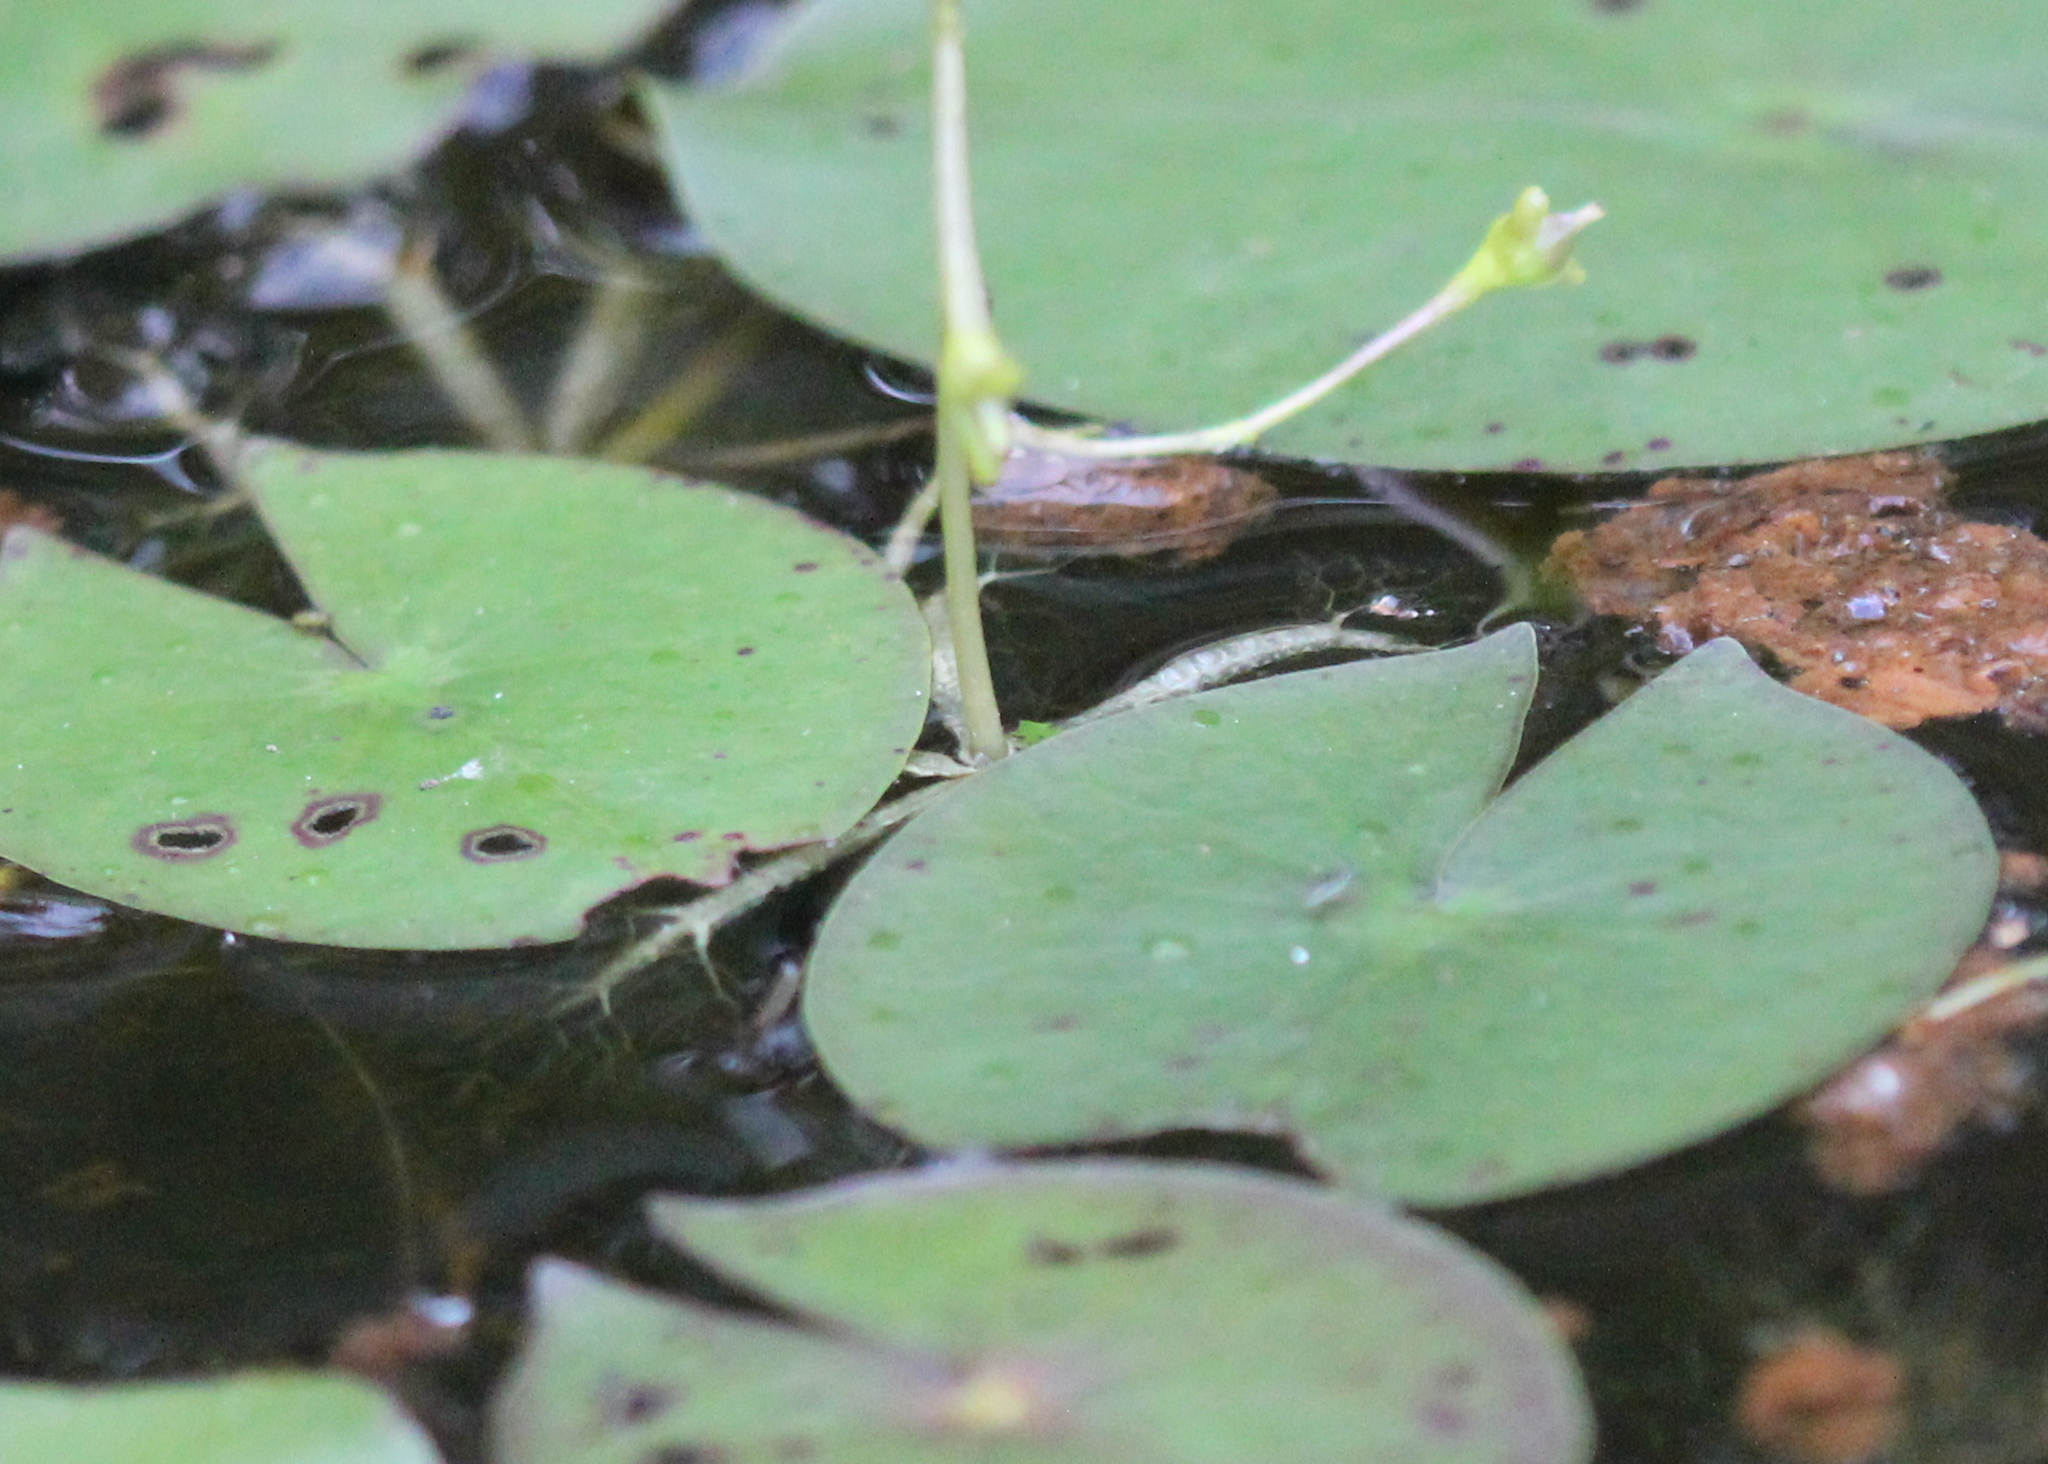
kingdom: Plantae
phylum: Tracheophyta
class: Magnoliopsida
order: Lamiales
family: Lentibulariaceae
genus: Utricularia
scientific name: Utricularia radiata
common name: Floating bladderwort
